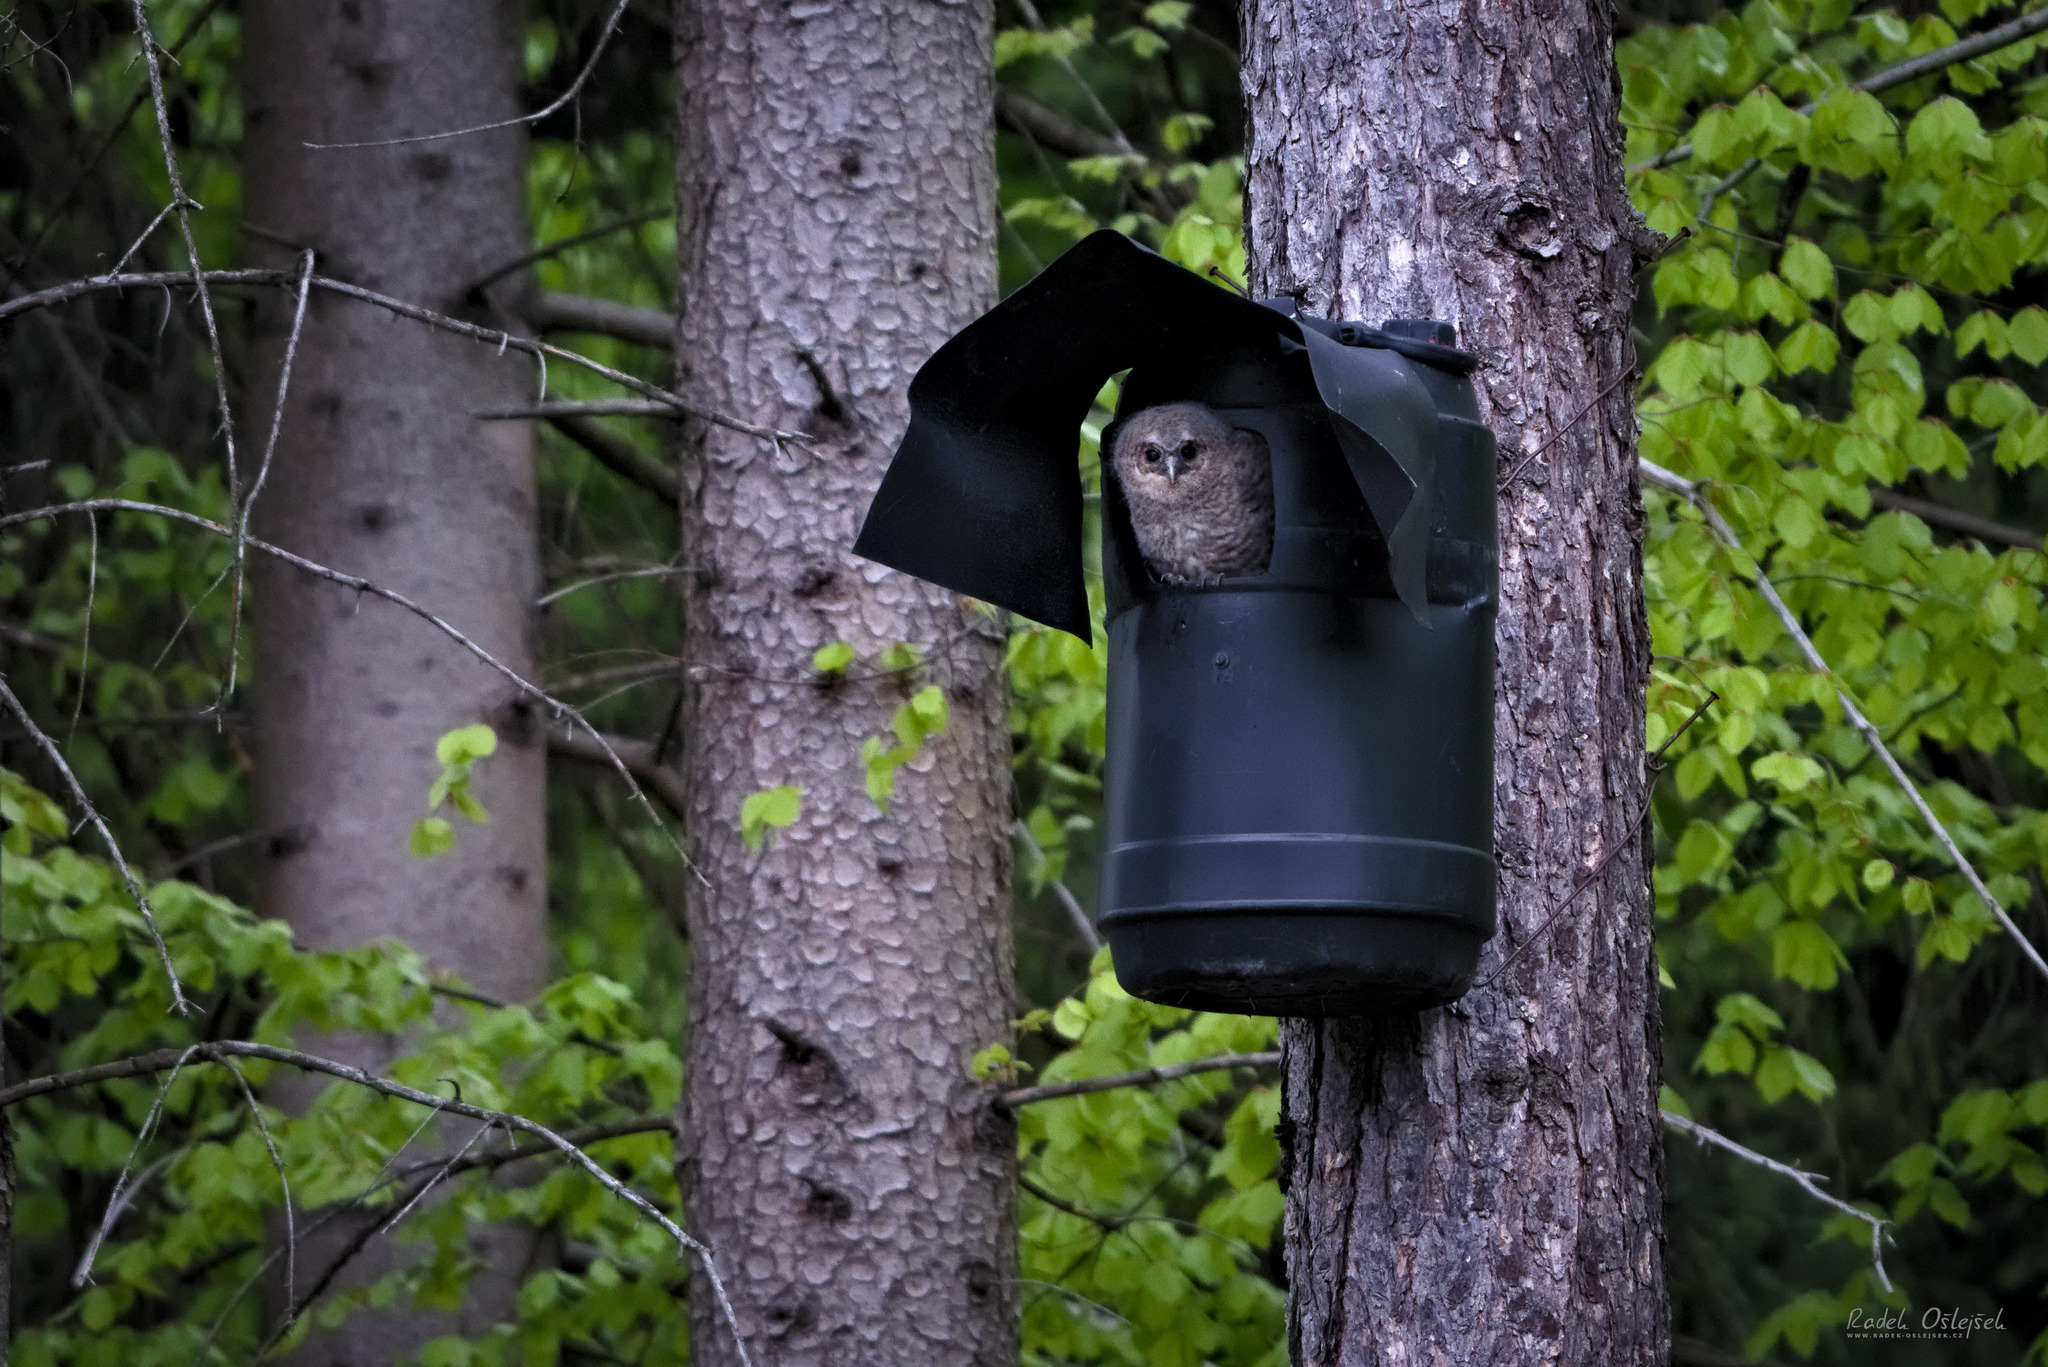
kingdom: Animalia
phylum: Chordata
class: Aves
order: Strigiformes
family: Strigidae
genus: Strix
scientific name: Strix aluco
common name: Tawny owl
